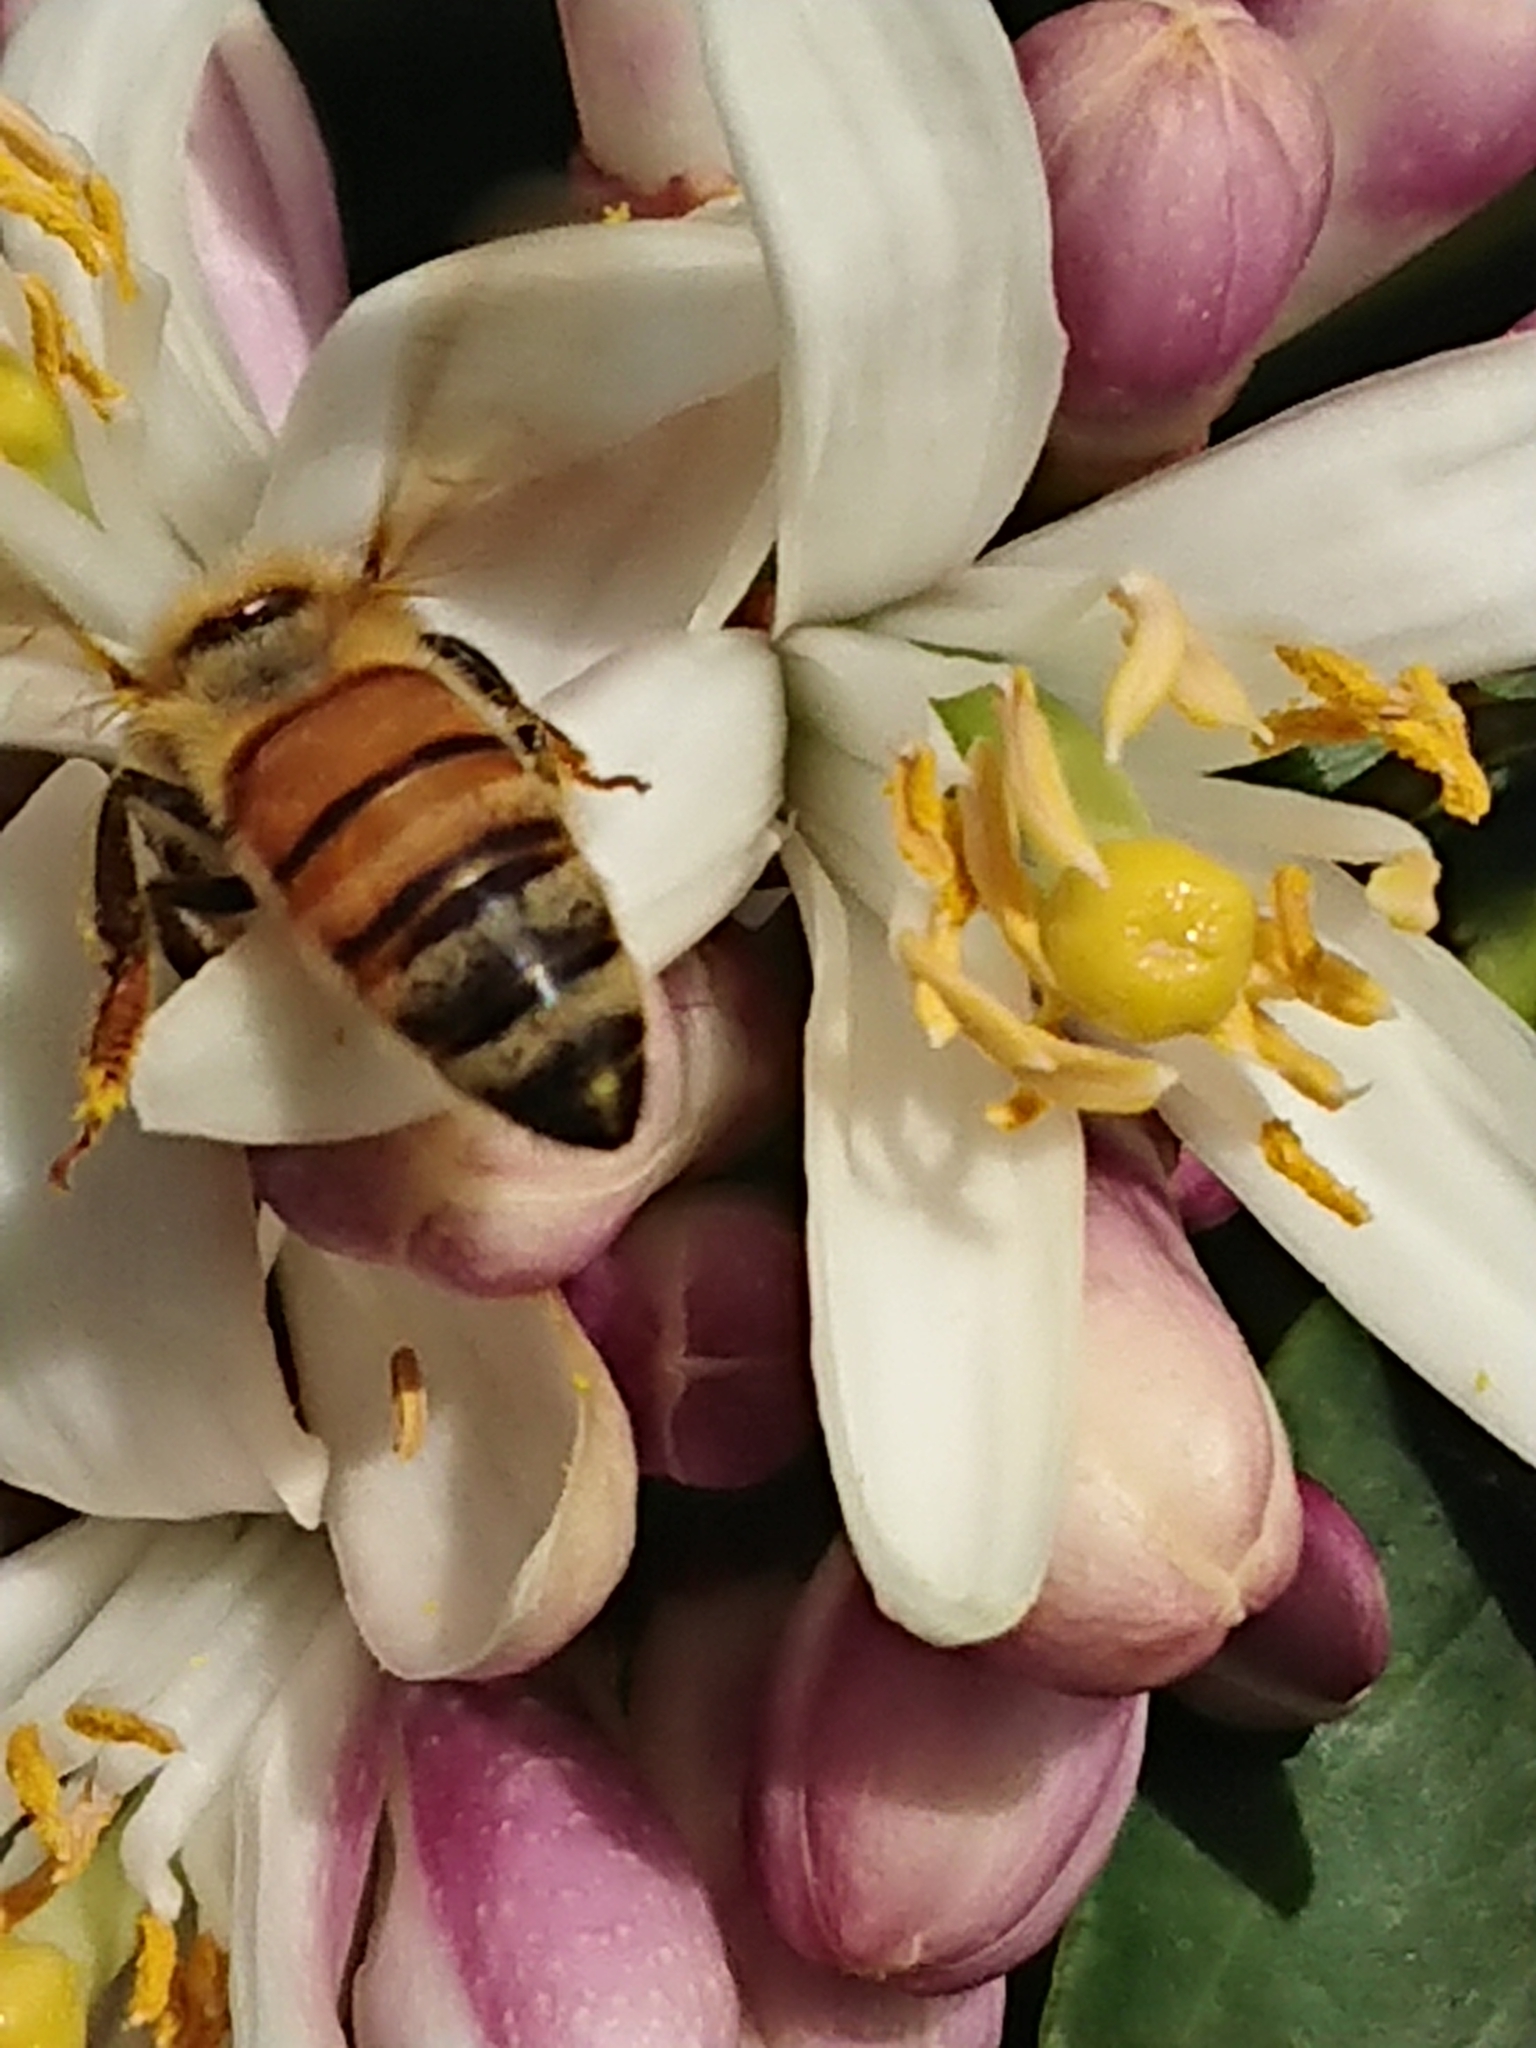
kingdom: Animalia
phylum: Arthropoda
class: Insecta
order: Hymenoptera
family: Apidae
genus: Apis
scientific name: Apis mellifera
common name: Honey bee
